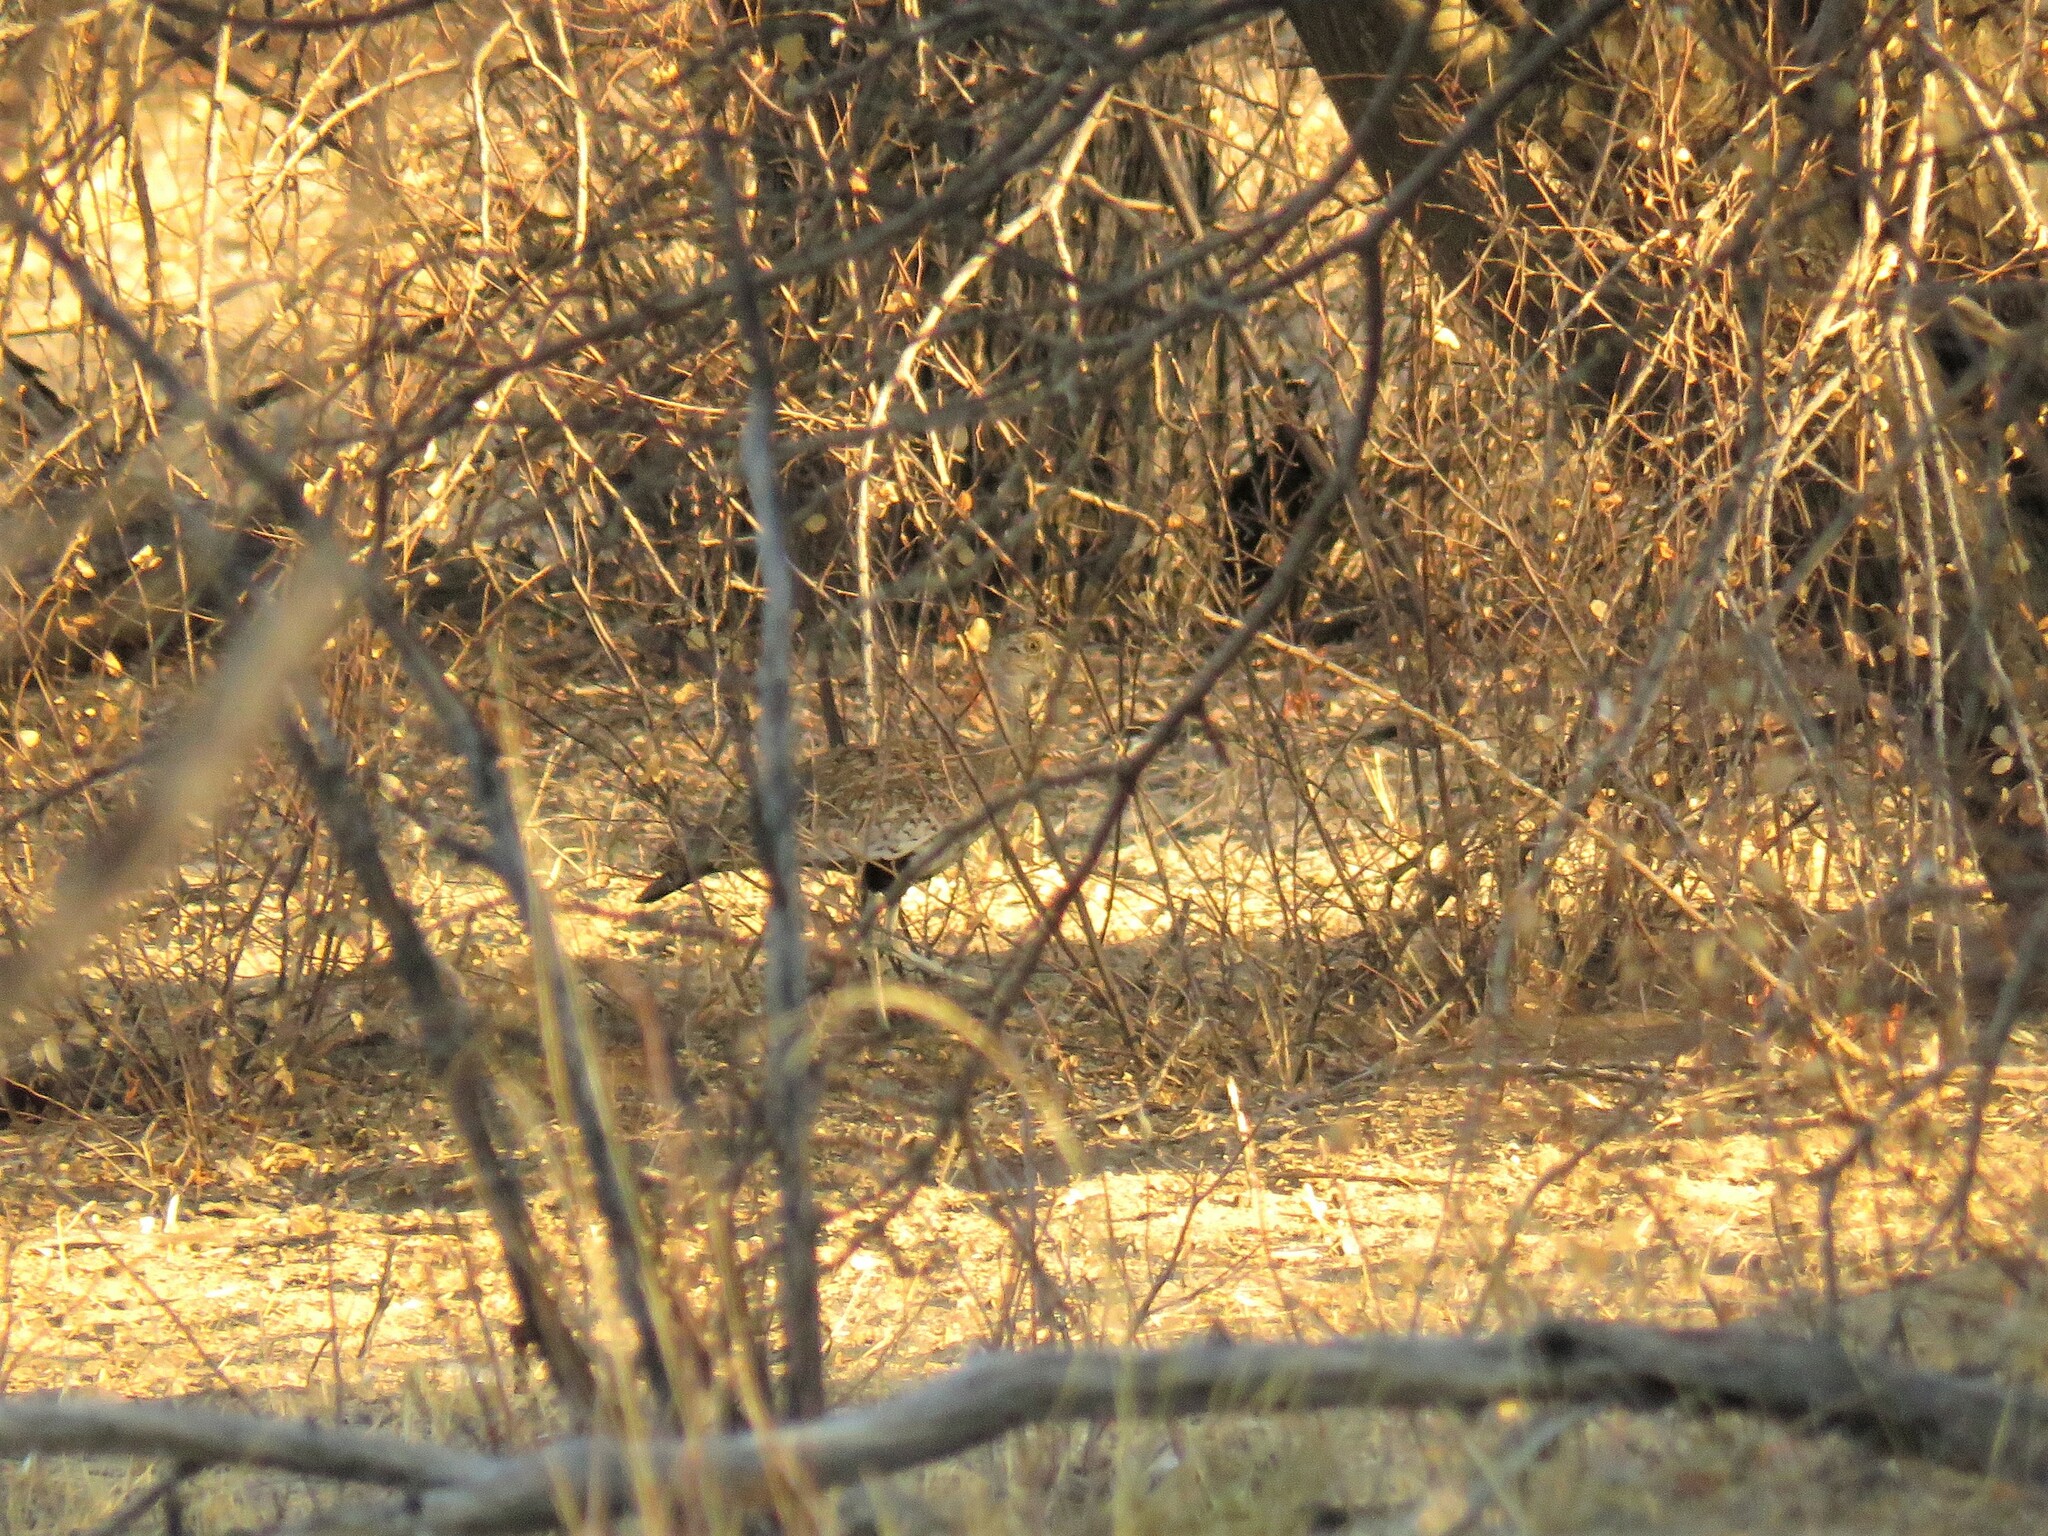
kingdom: Animalia
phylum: Chordata
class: Aves
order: Otidiformes
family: Otididae
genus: Lophotis
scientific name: Lophotis ruficrista
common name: Red-crested korhaan
